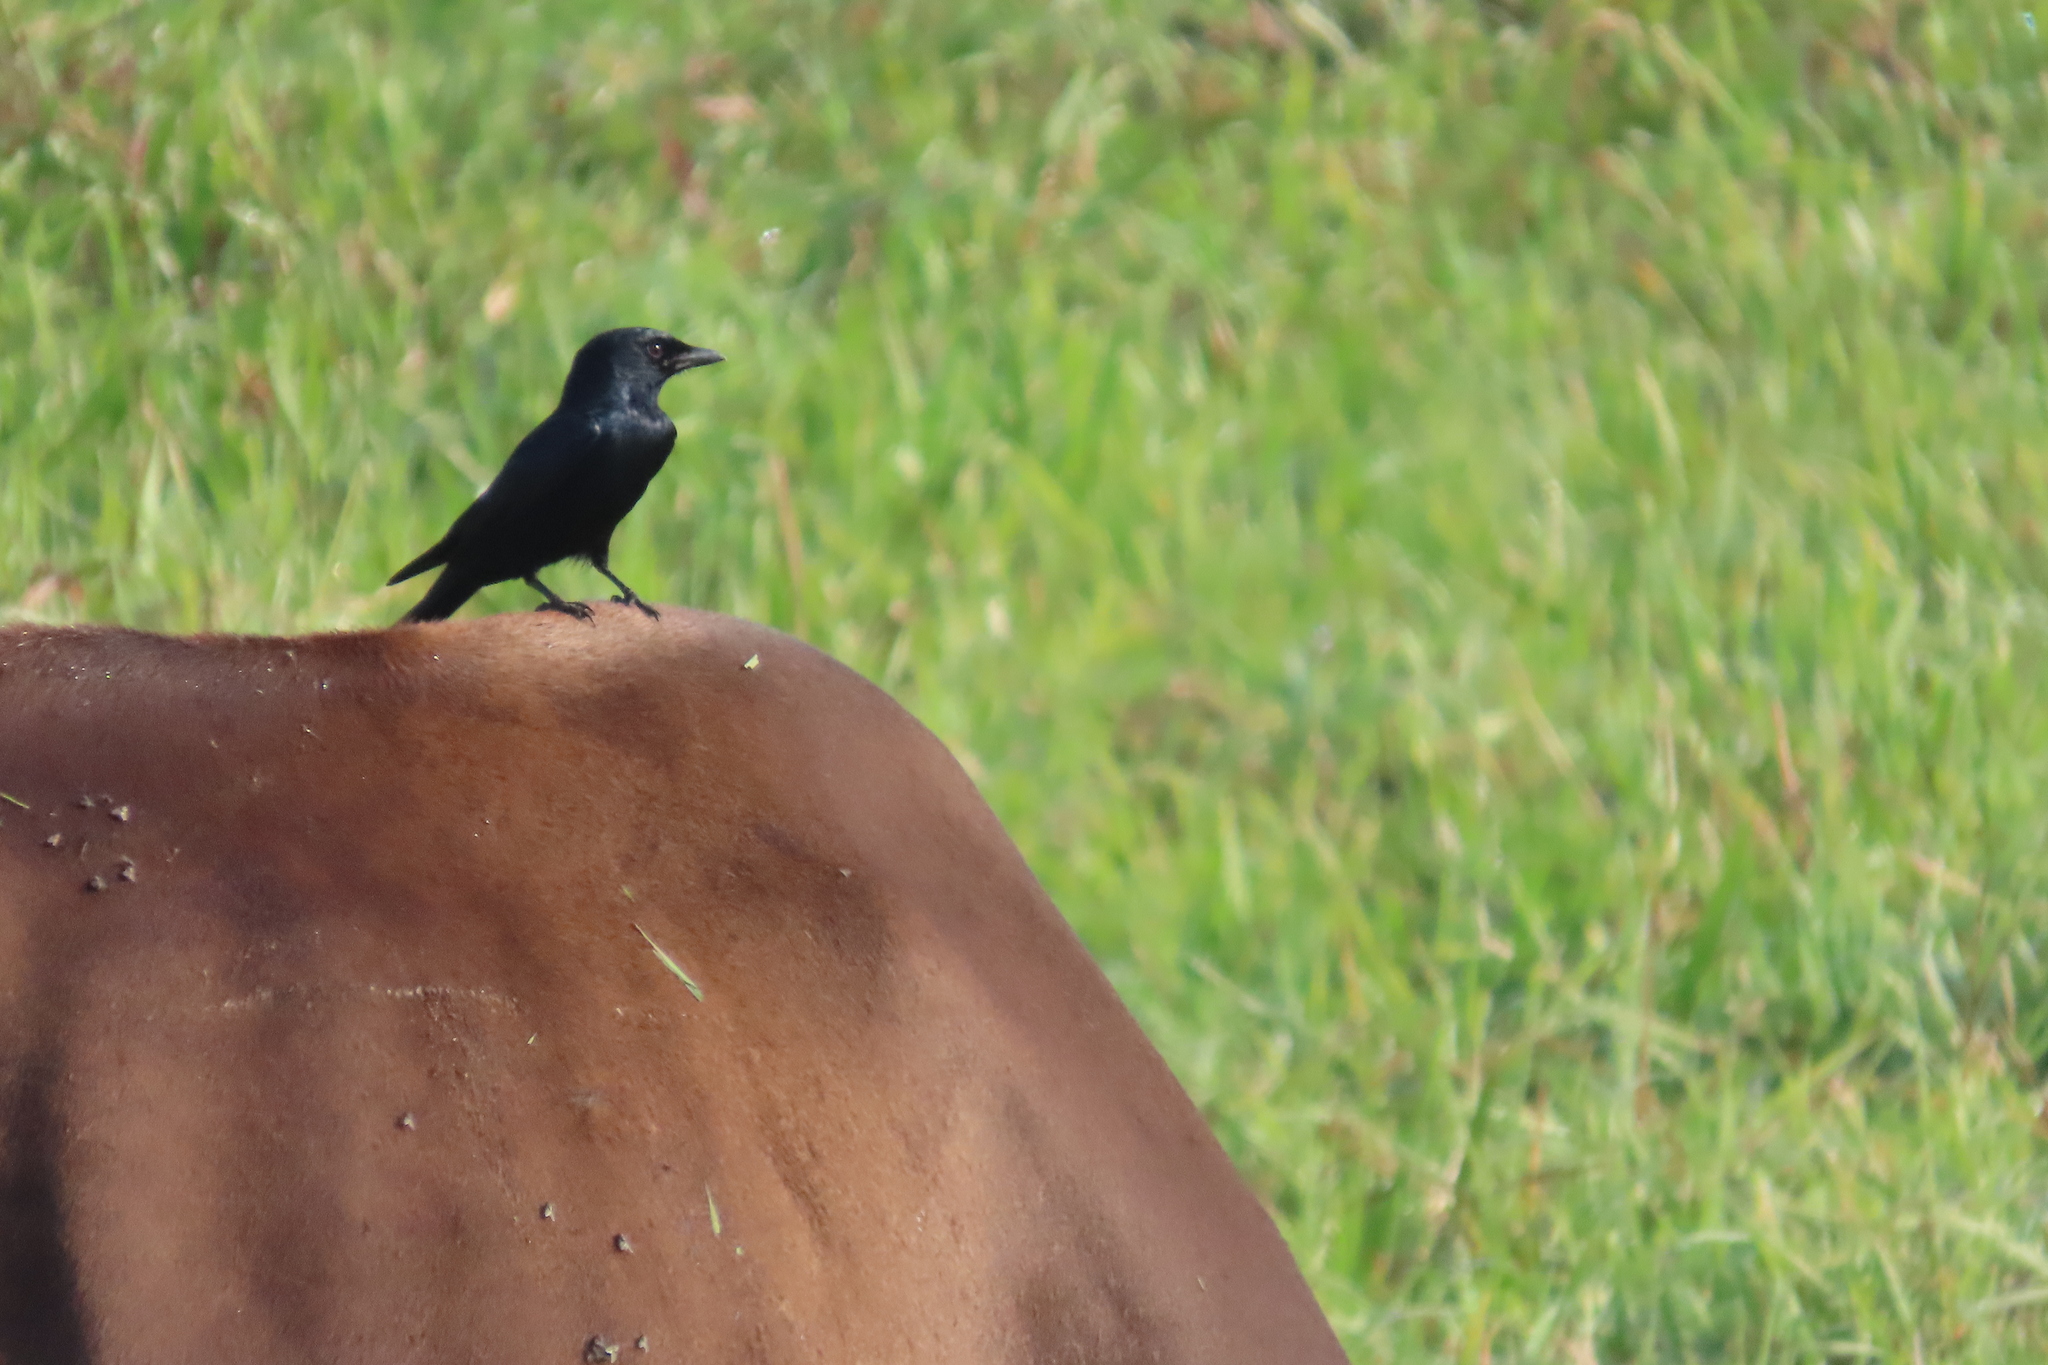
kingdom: Animalia
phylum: Chordata
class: Aves
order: Passeriformes
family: Dicruridae
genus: Dicrurus
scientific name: Dicrurus macrocercus
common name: Black drongo
